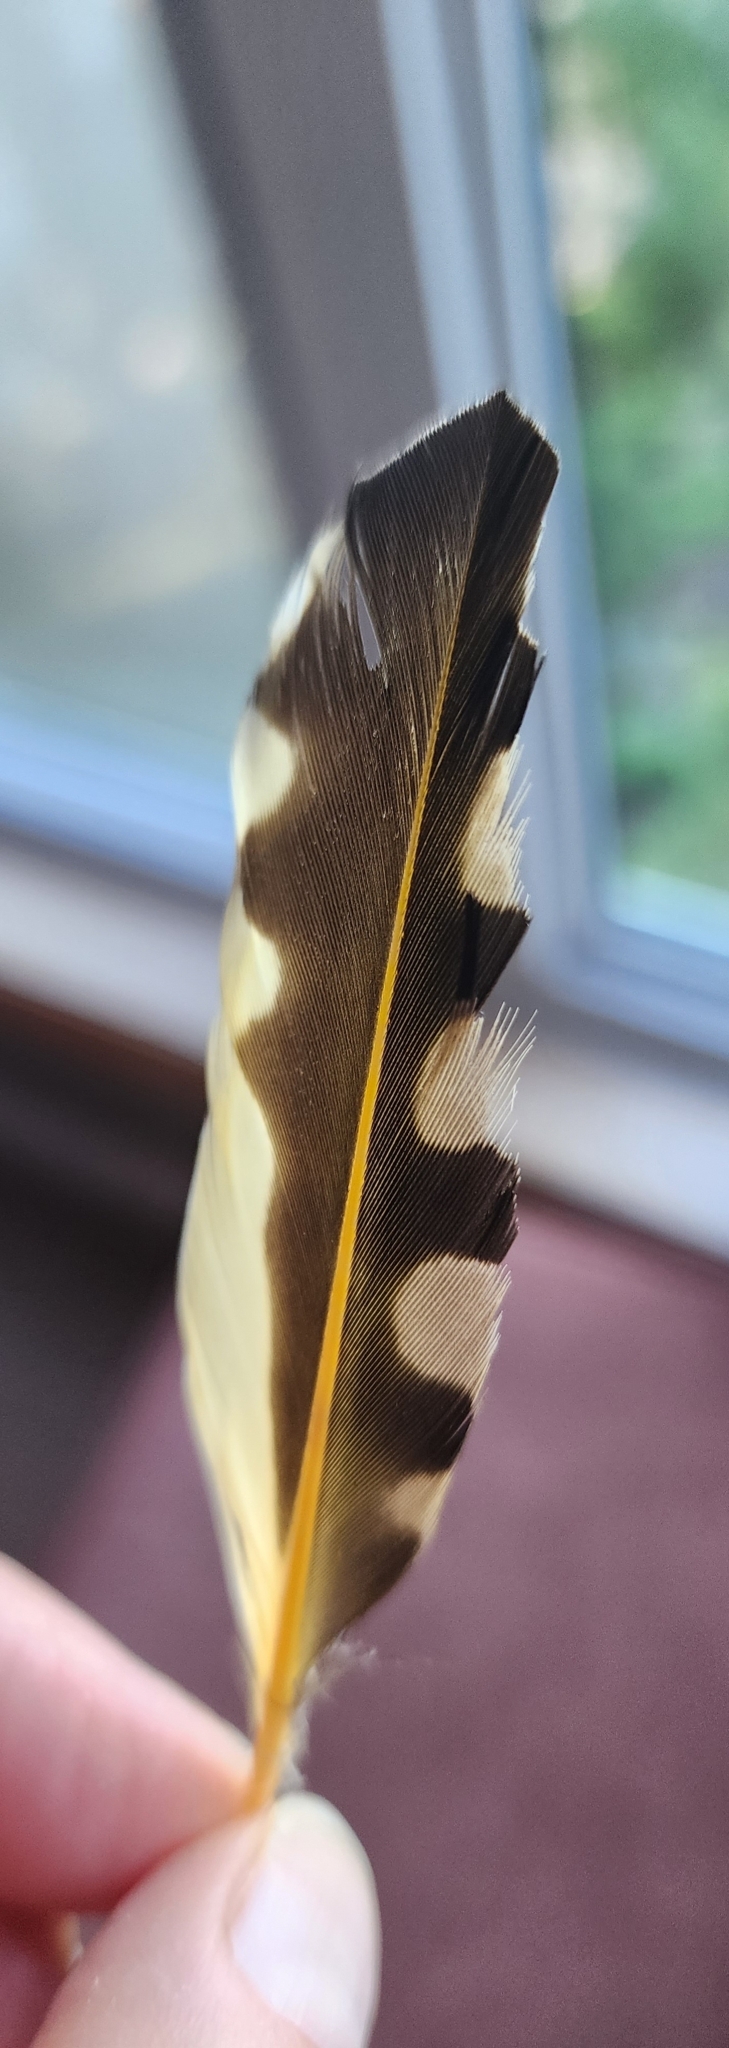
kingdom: Animalia
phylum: Chordata
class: Aves
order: Piciformes
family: Picidae
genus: Colaptes
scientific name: Colaptes auratus
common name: Northern flicker
